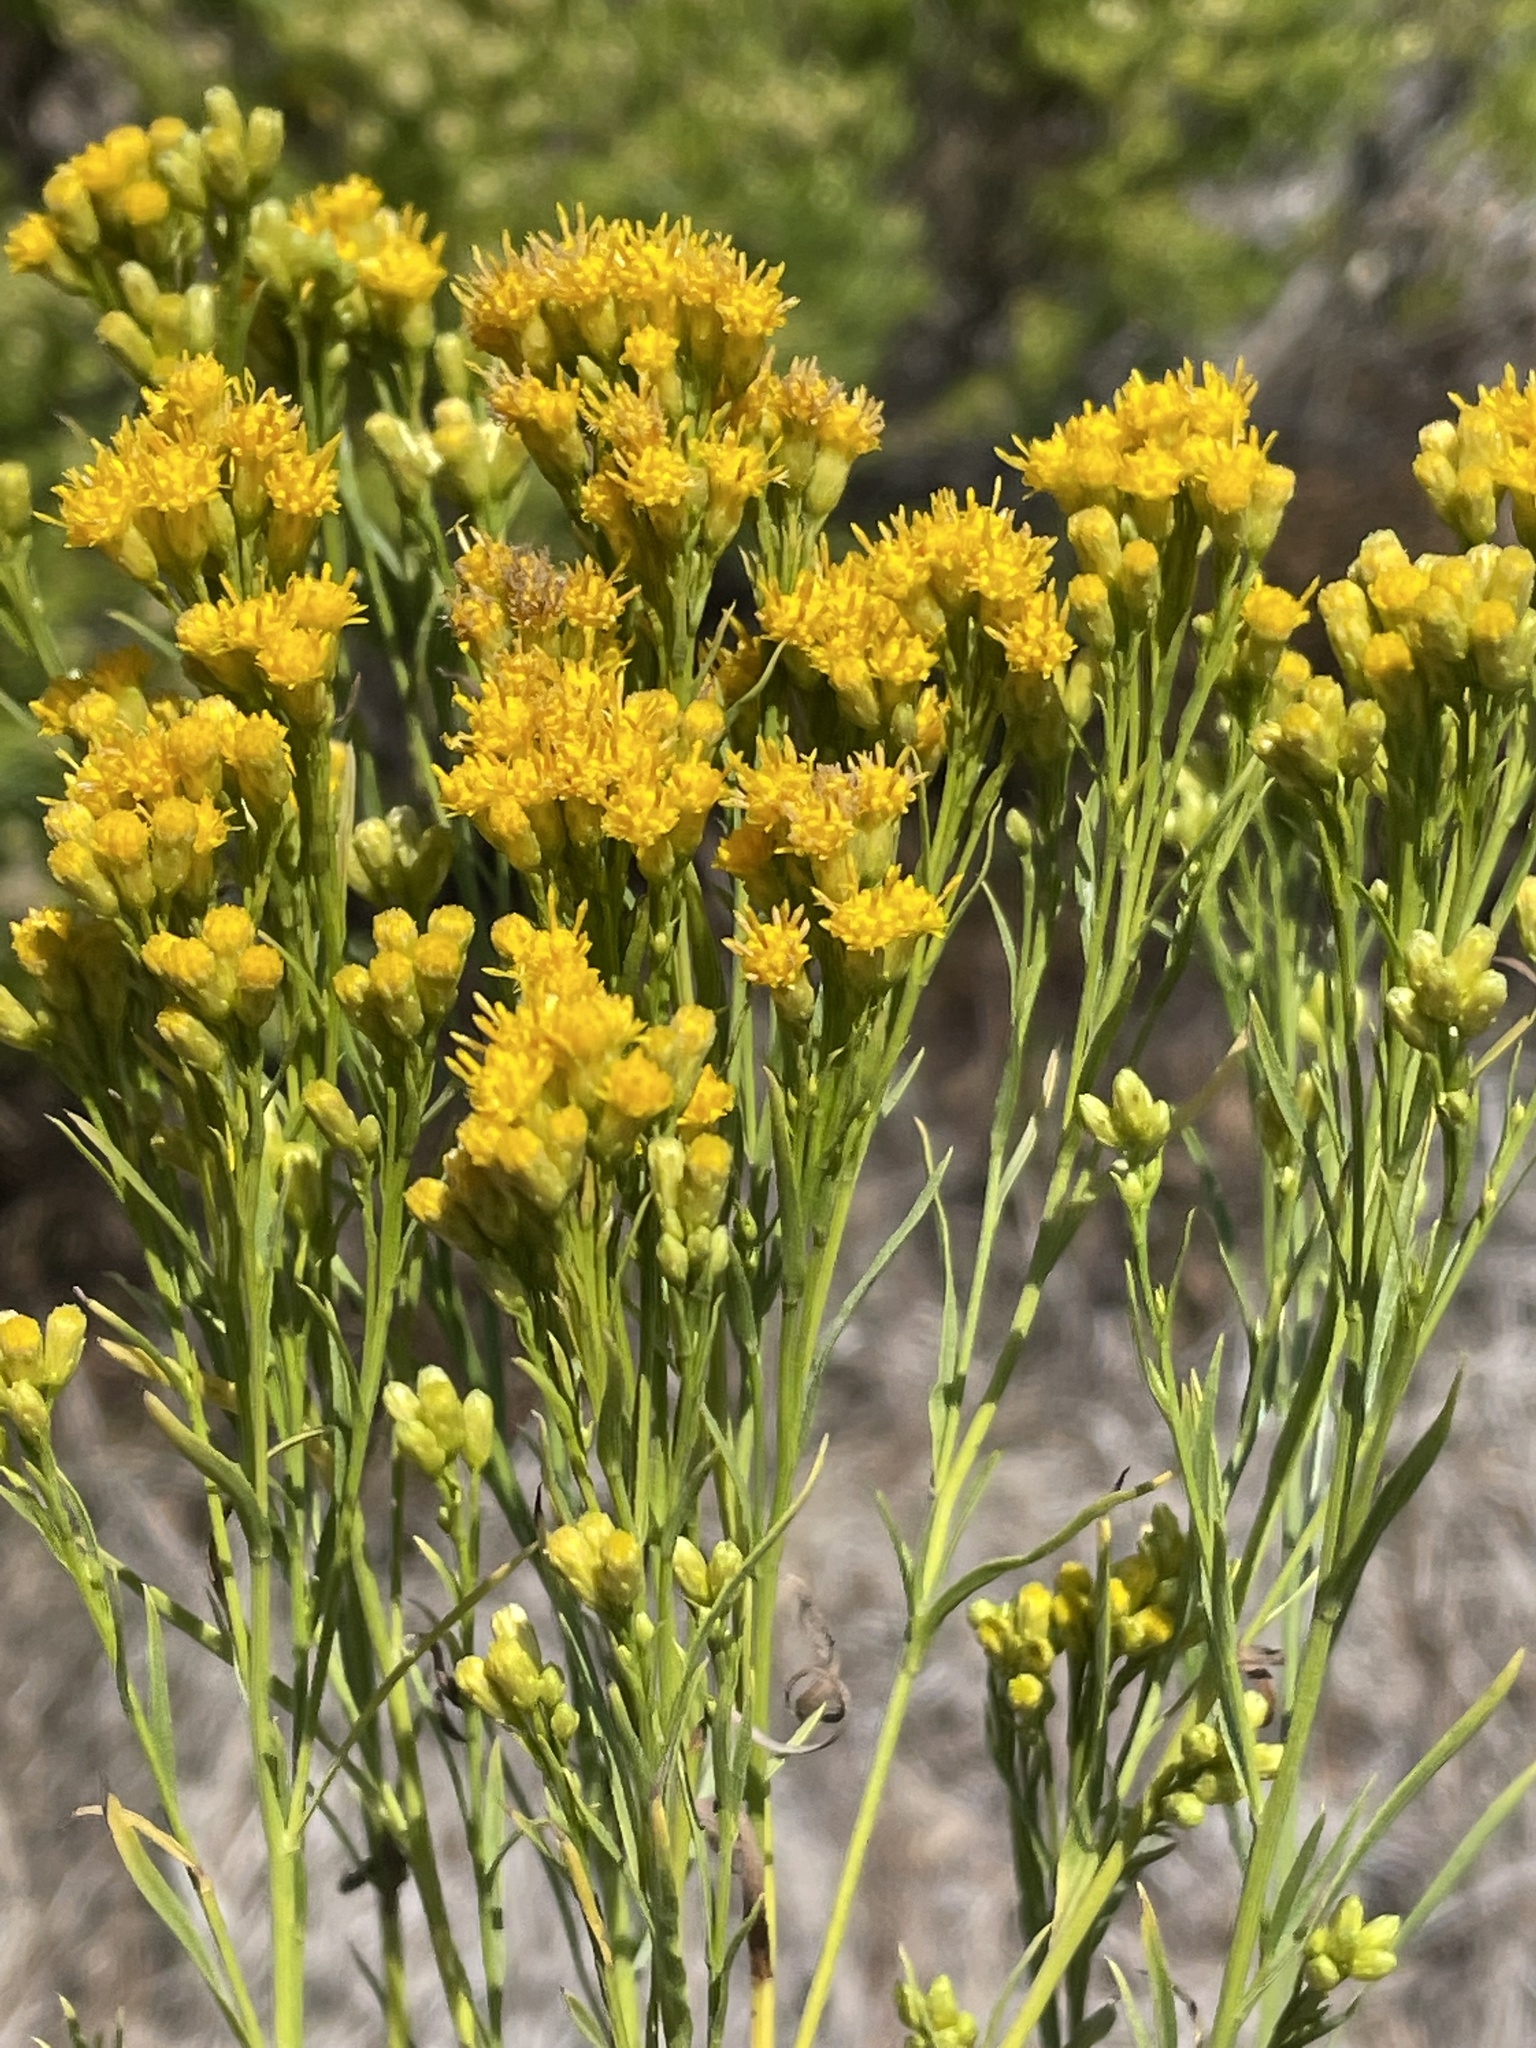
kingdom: Plantae
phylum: Tracheophyta
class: Magnoliopsida
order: Asterales
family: Asteraceae
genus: Euthamia
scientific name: Euthamia occidentalis
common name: Western goldentop
